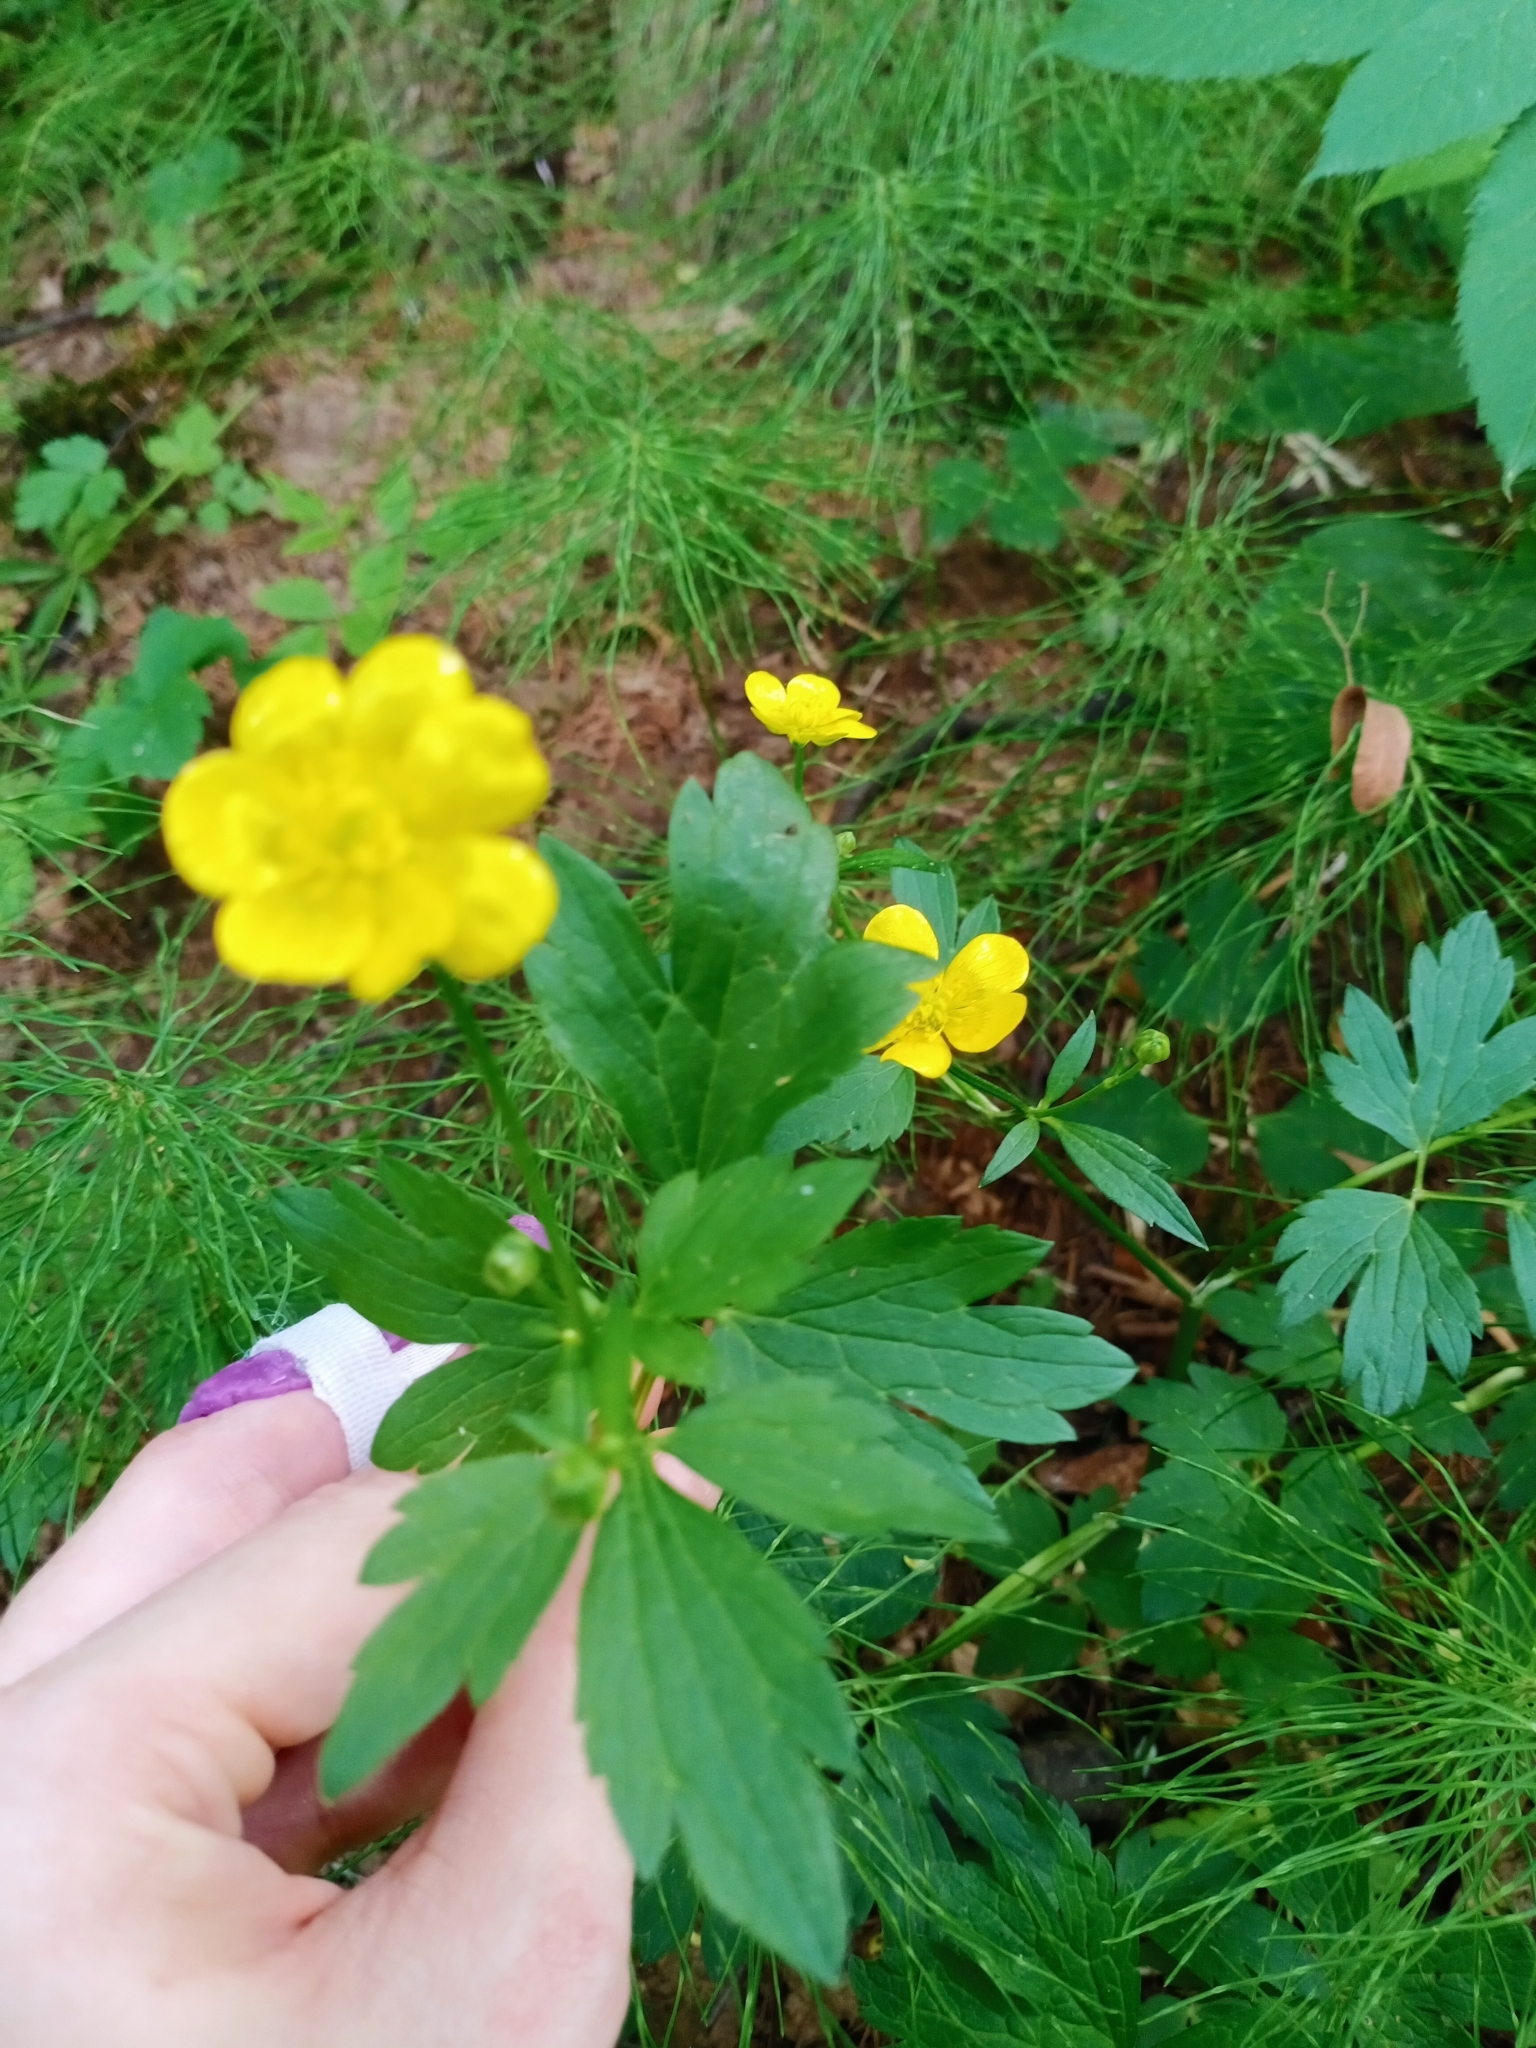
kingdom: Plantae
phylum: Tracheophyta
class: Magnoliopsida
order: Ranunculales
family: Ranunculaceae
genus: Ranunculus
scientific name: Ranunculus repens
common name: Creeping buttercup
